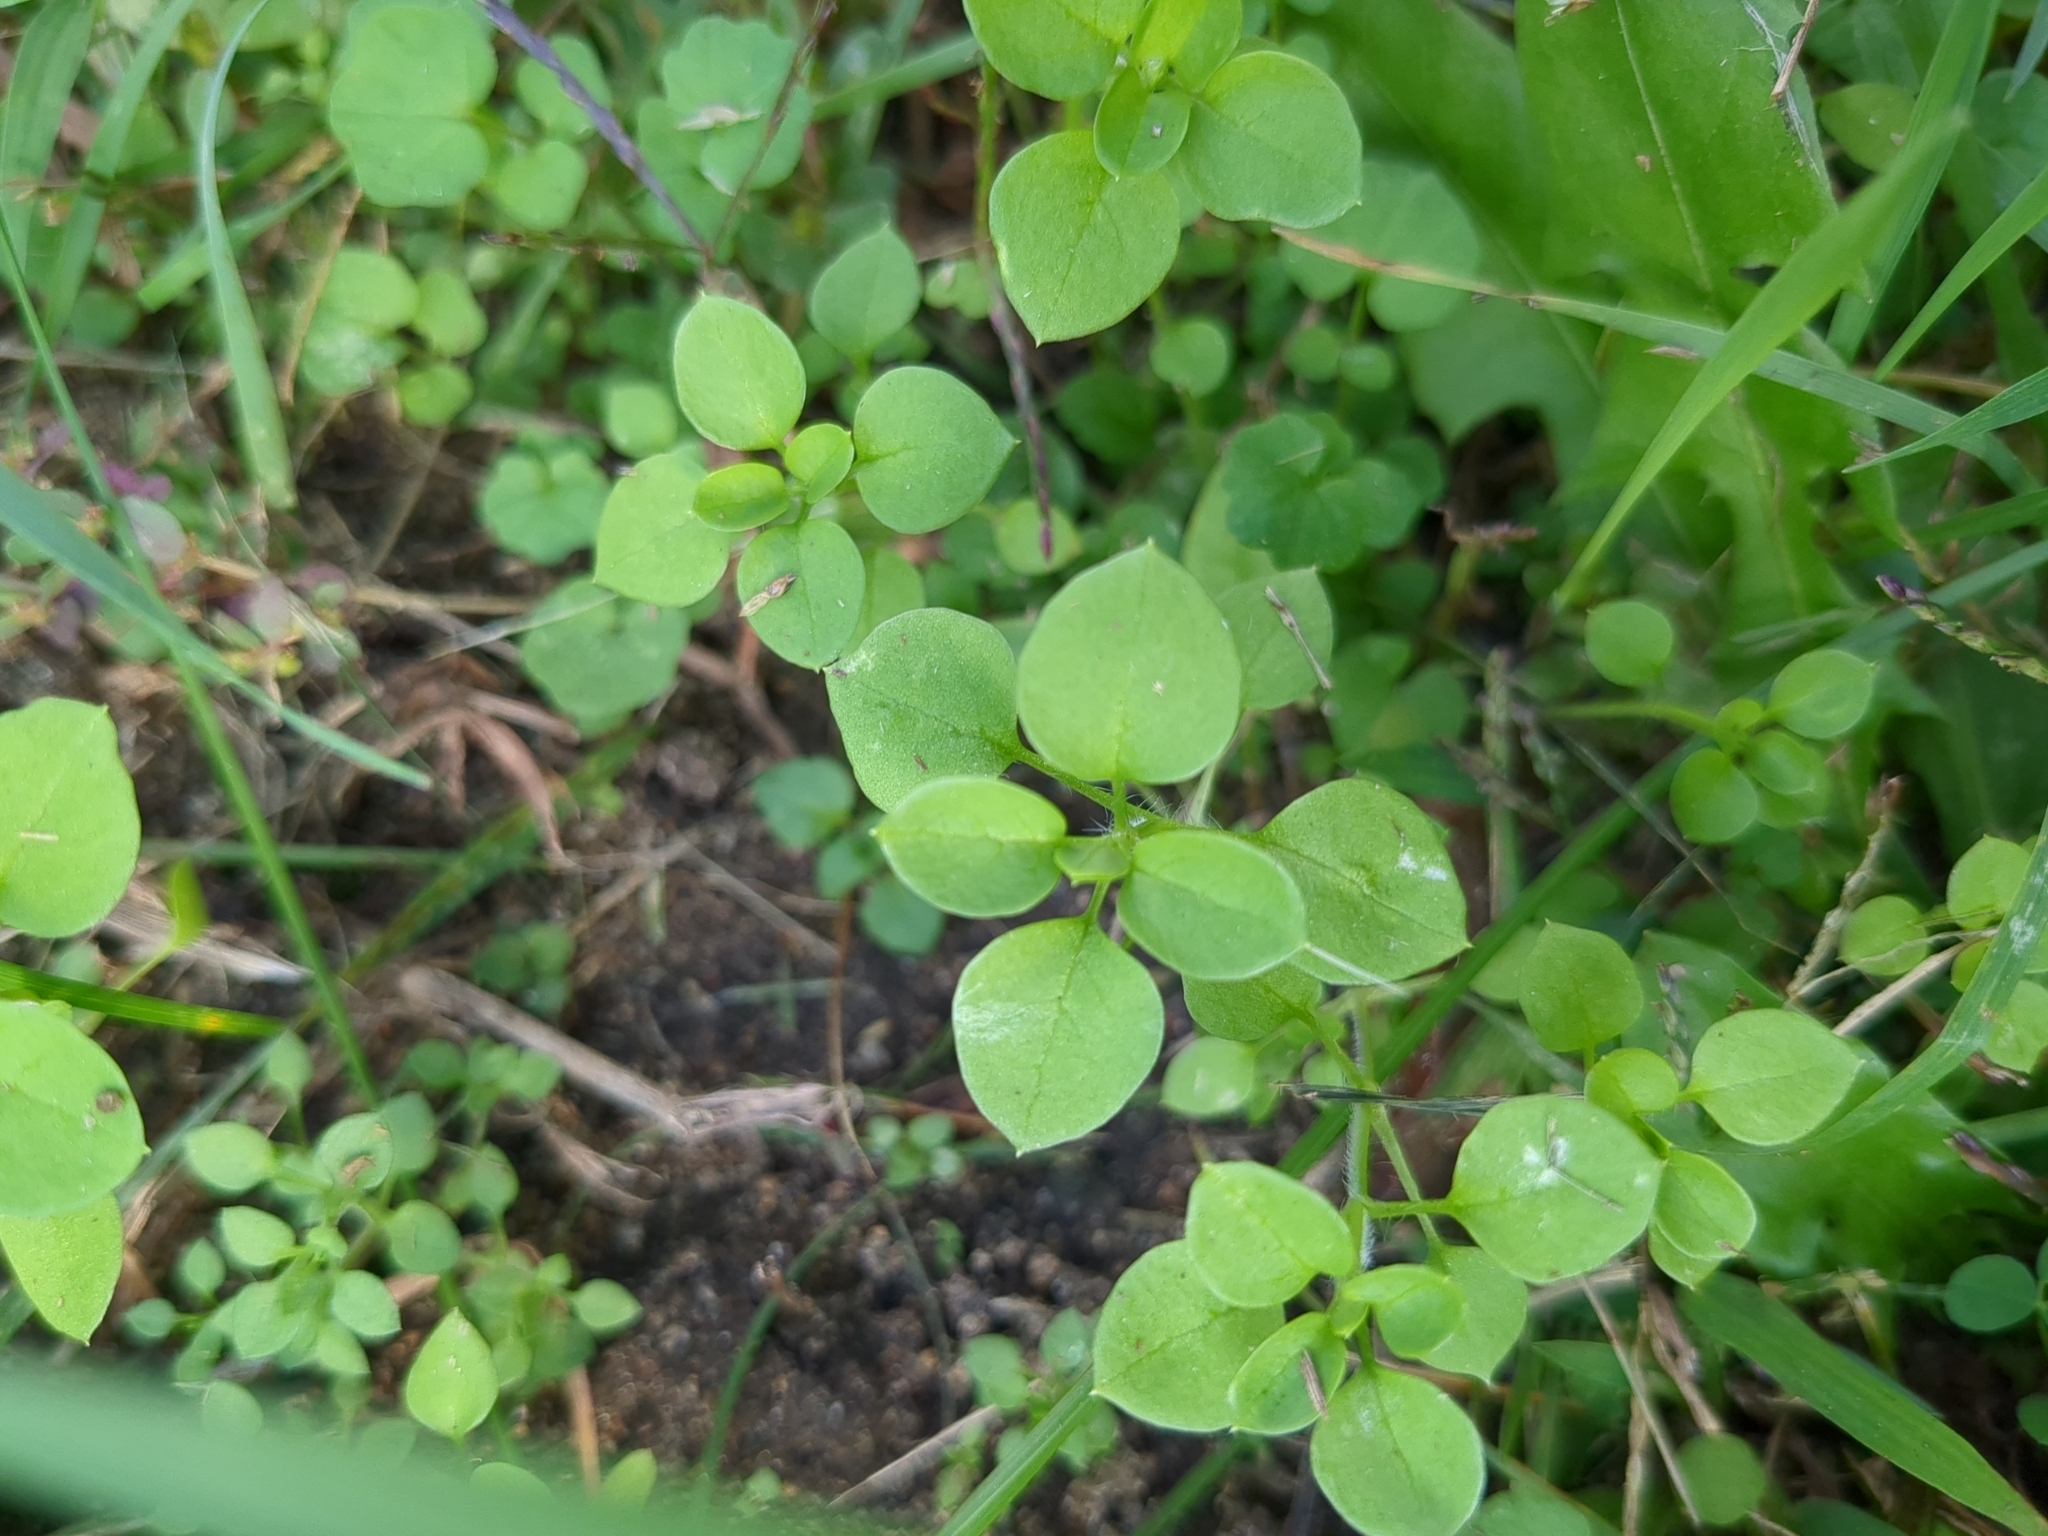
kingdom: Plantae
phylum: Tracheophyta
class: Magnoliopsida
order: Caryophyllales
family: Caryophyllaceae
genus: Stellaria
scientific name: Stellaria media
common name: Common chickweed
